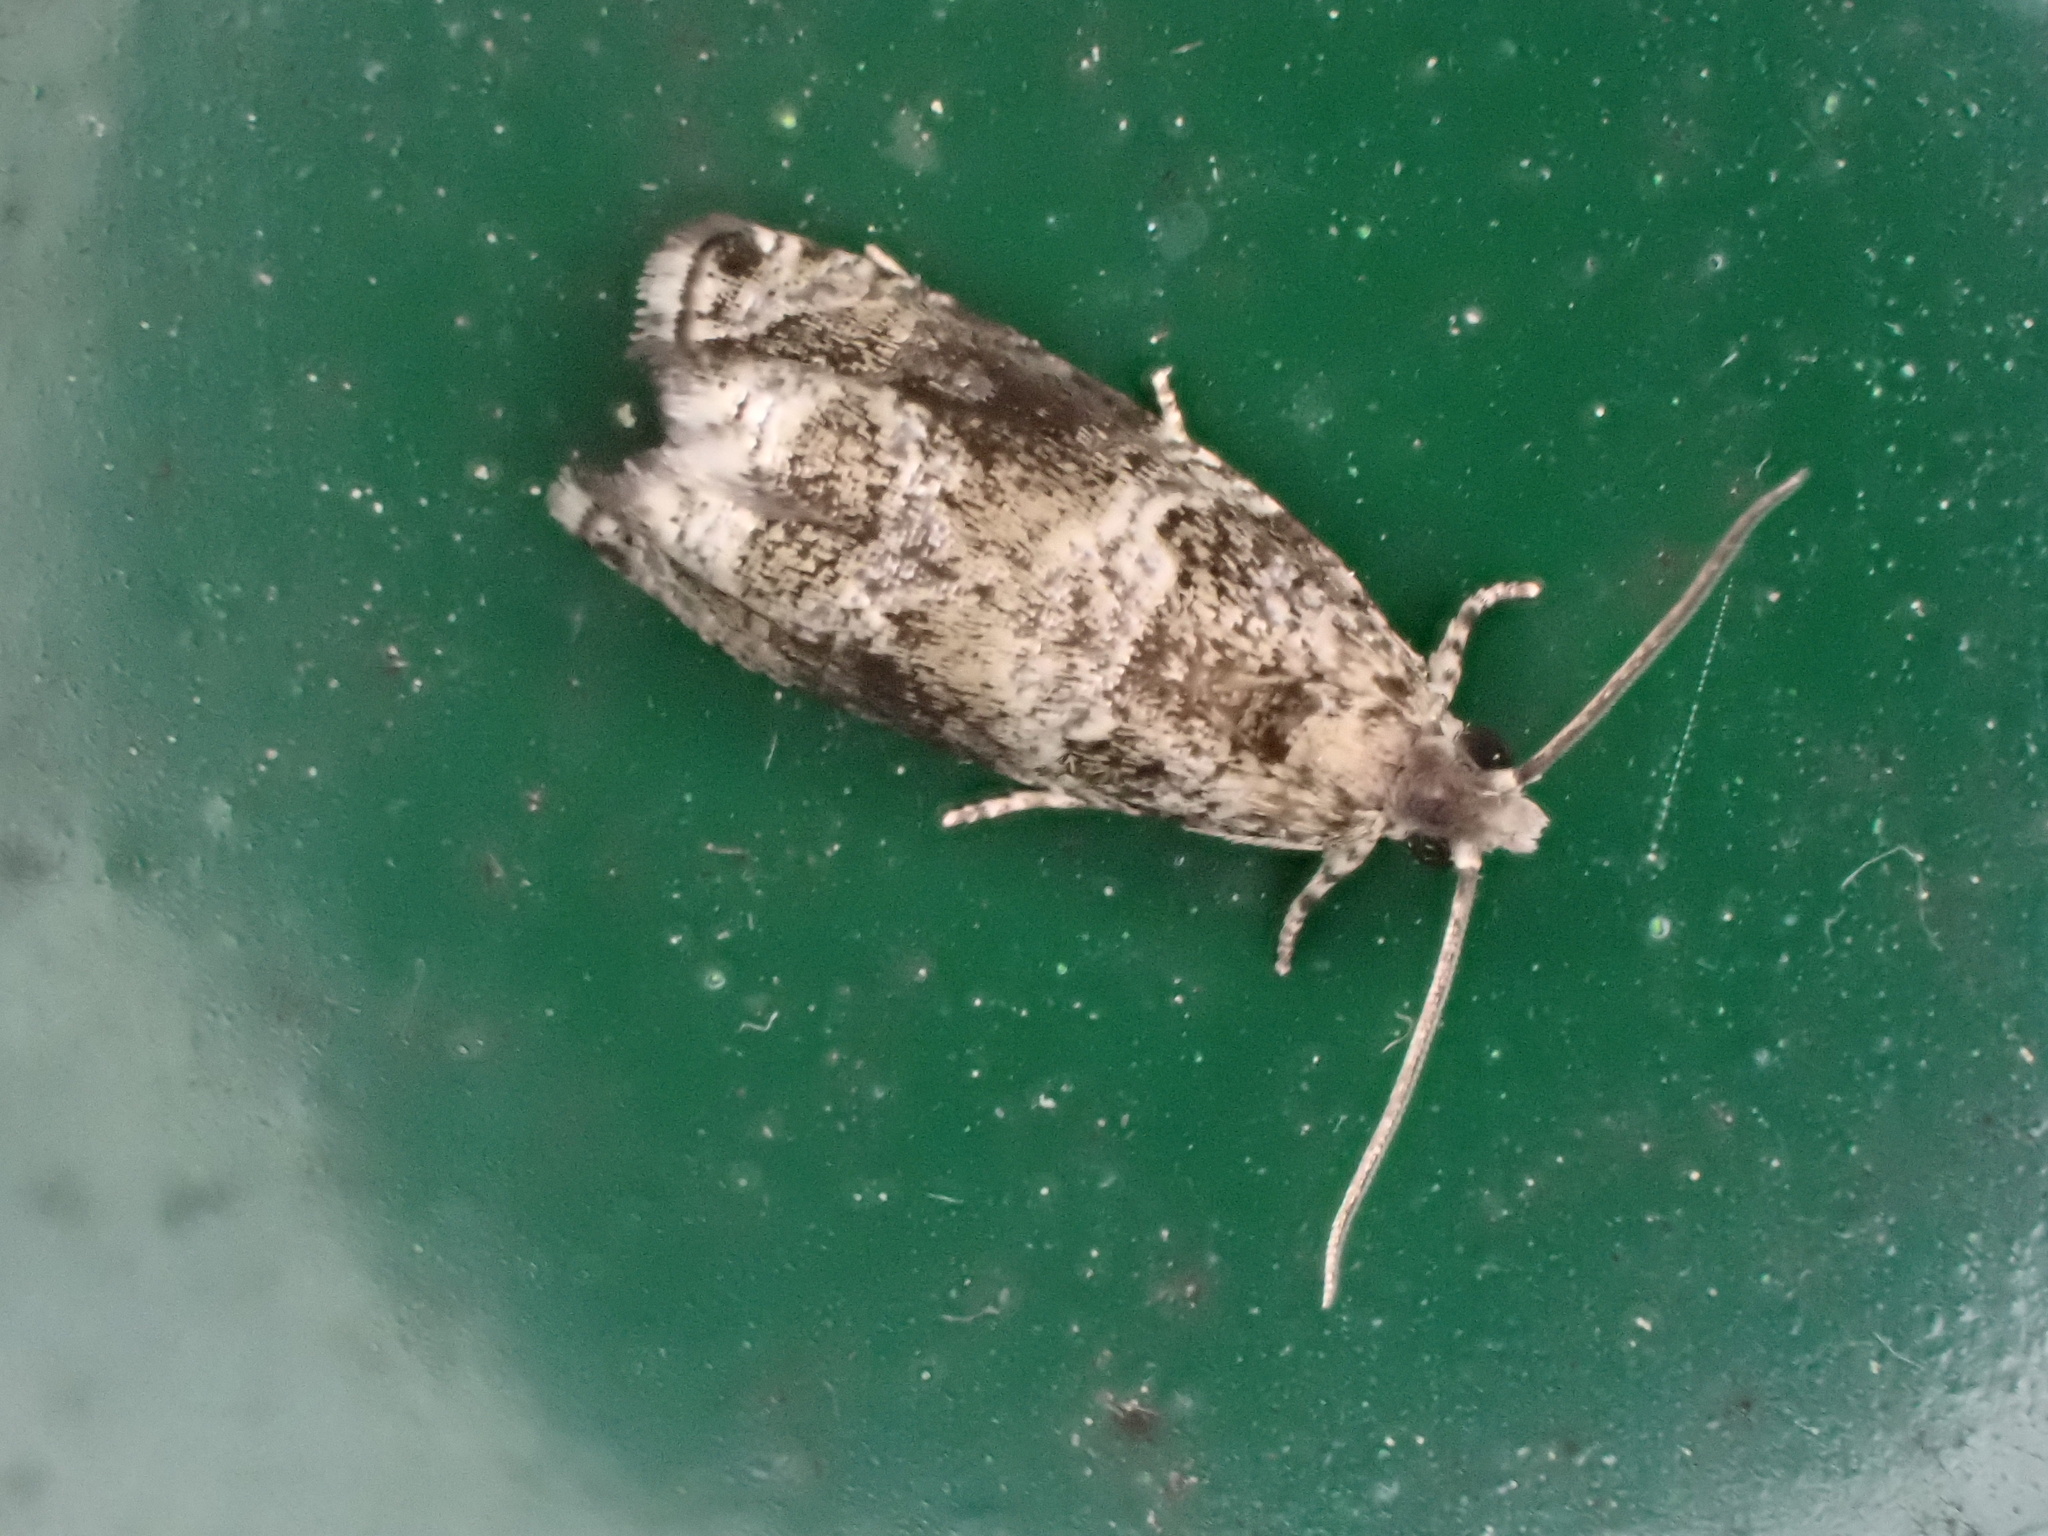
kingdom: Animalia
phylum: Arthropoda
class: Insecta
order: Lepidoptera
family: Tortricidae
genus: Olethreutes
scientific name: Olethreutes appendiceum
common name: Serviceberry leafroller
